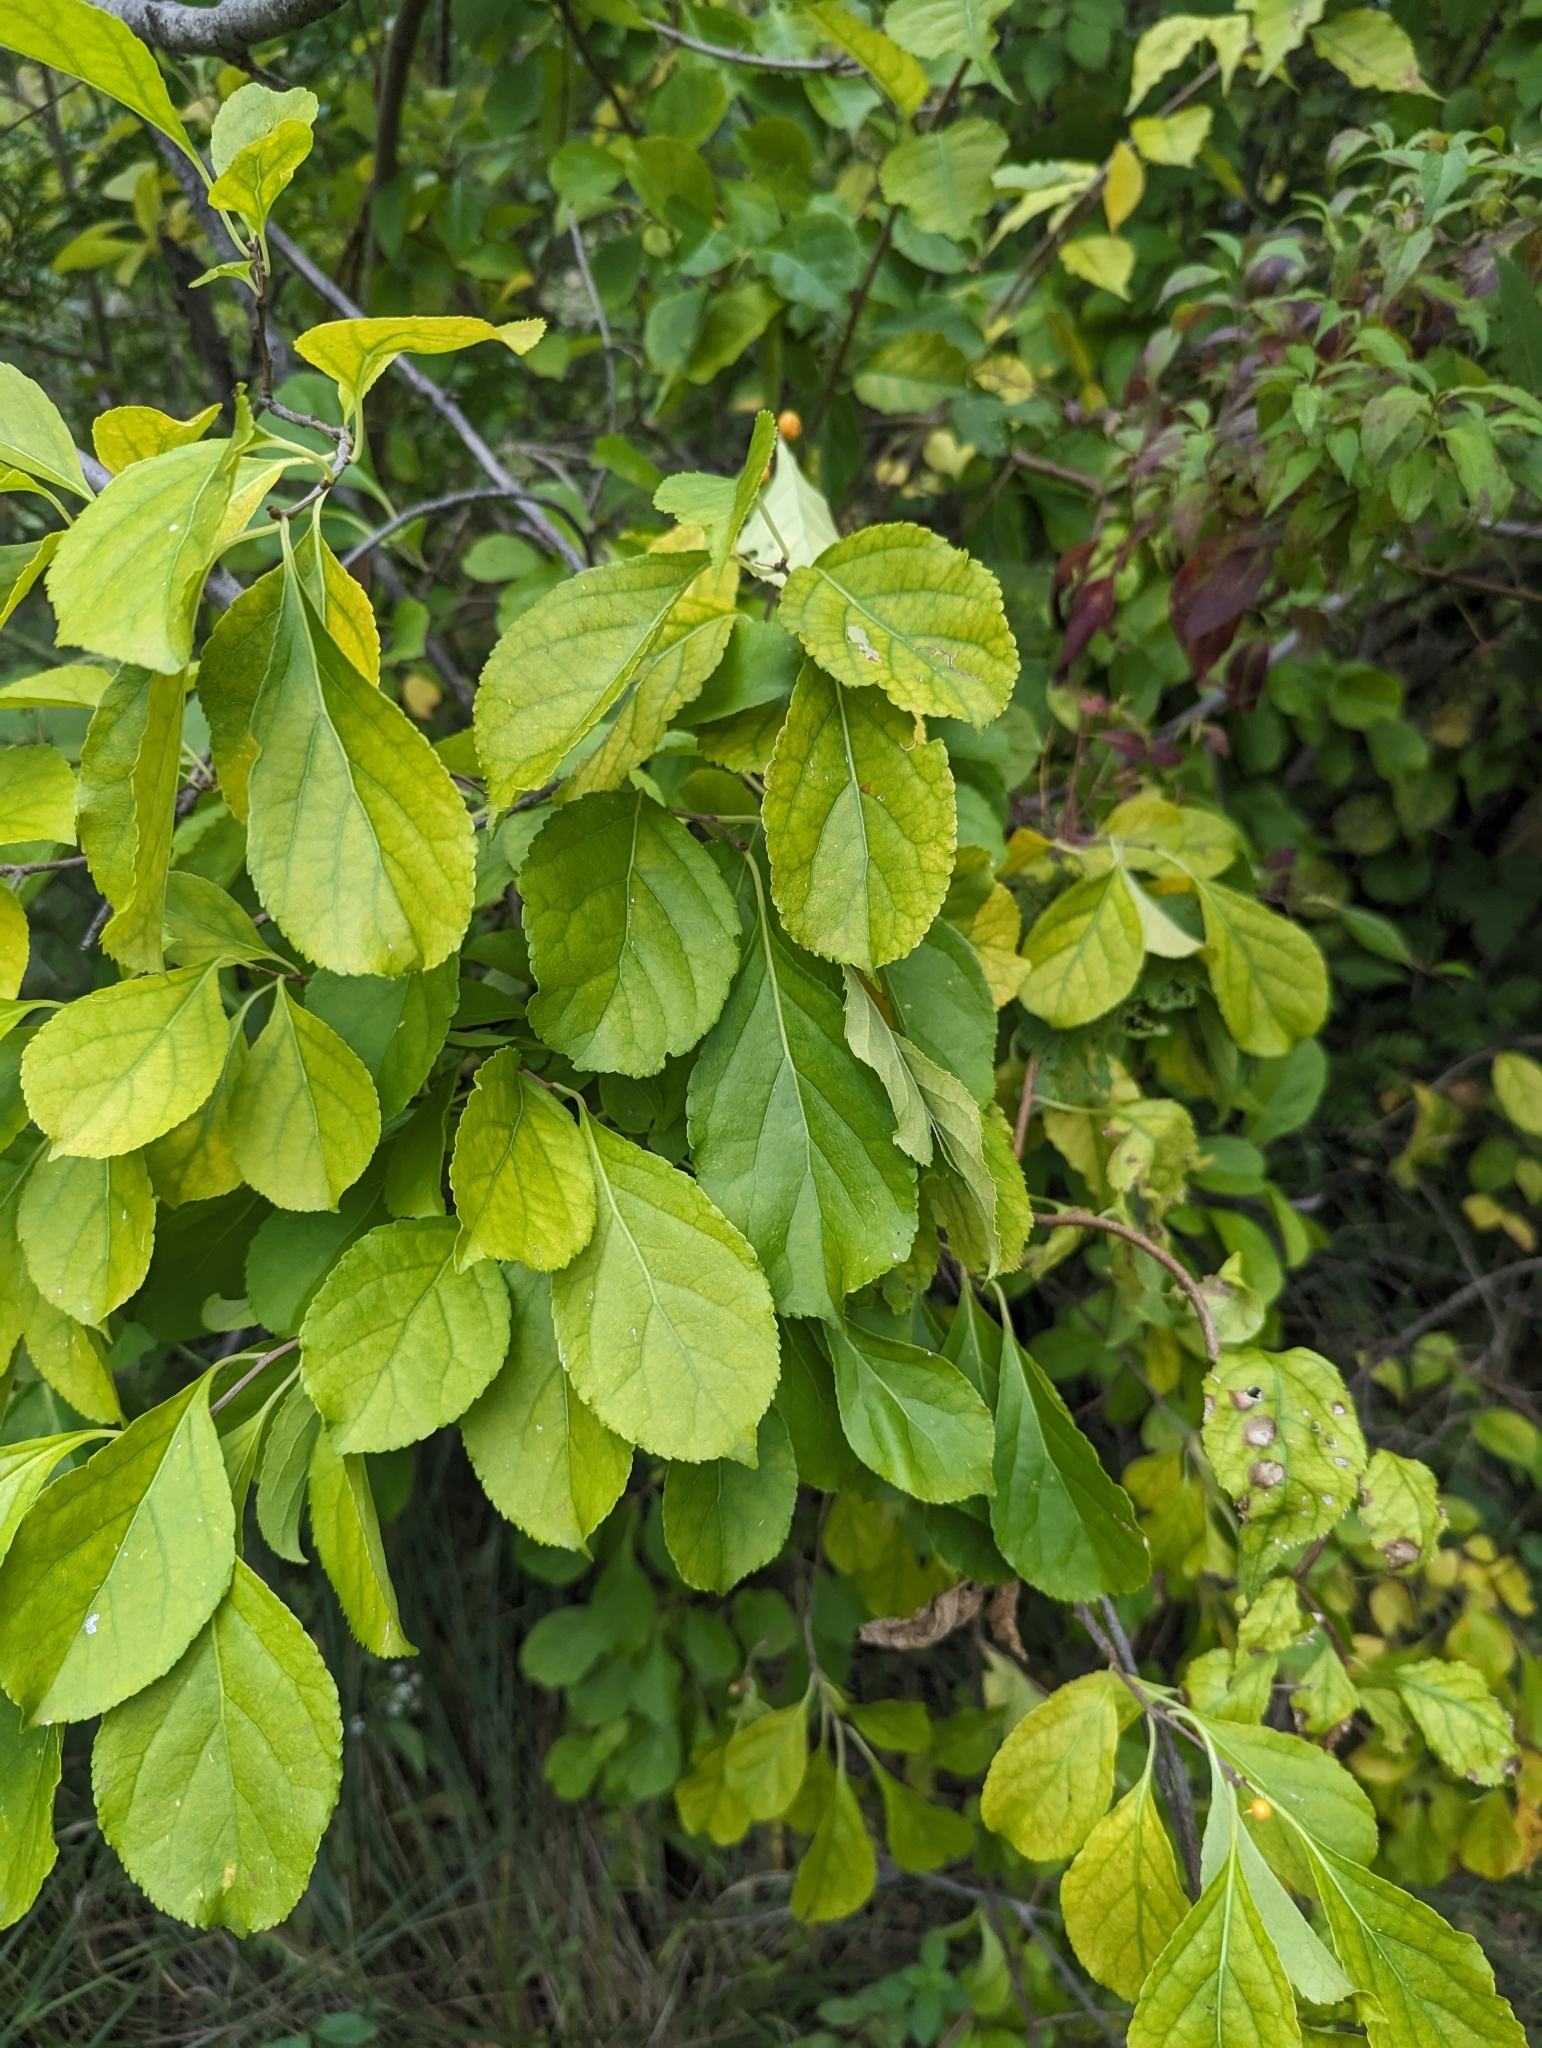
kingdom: Plantae
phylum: Tracheophyta
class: Magnoliopsida
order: Celastrales
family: Celastraceae
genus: Celastrus
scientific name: Celastrus orbiculatus
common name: Oriental bittersweet
